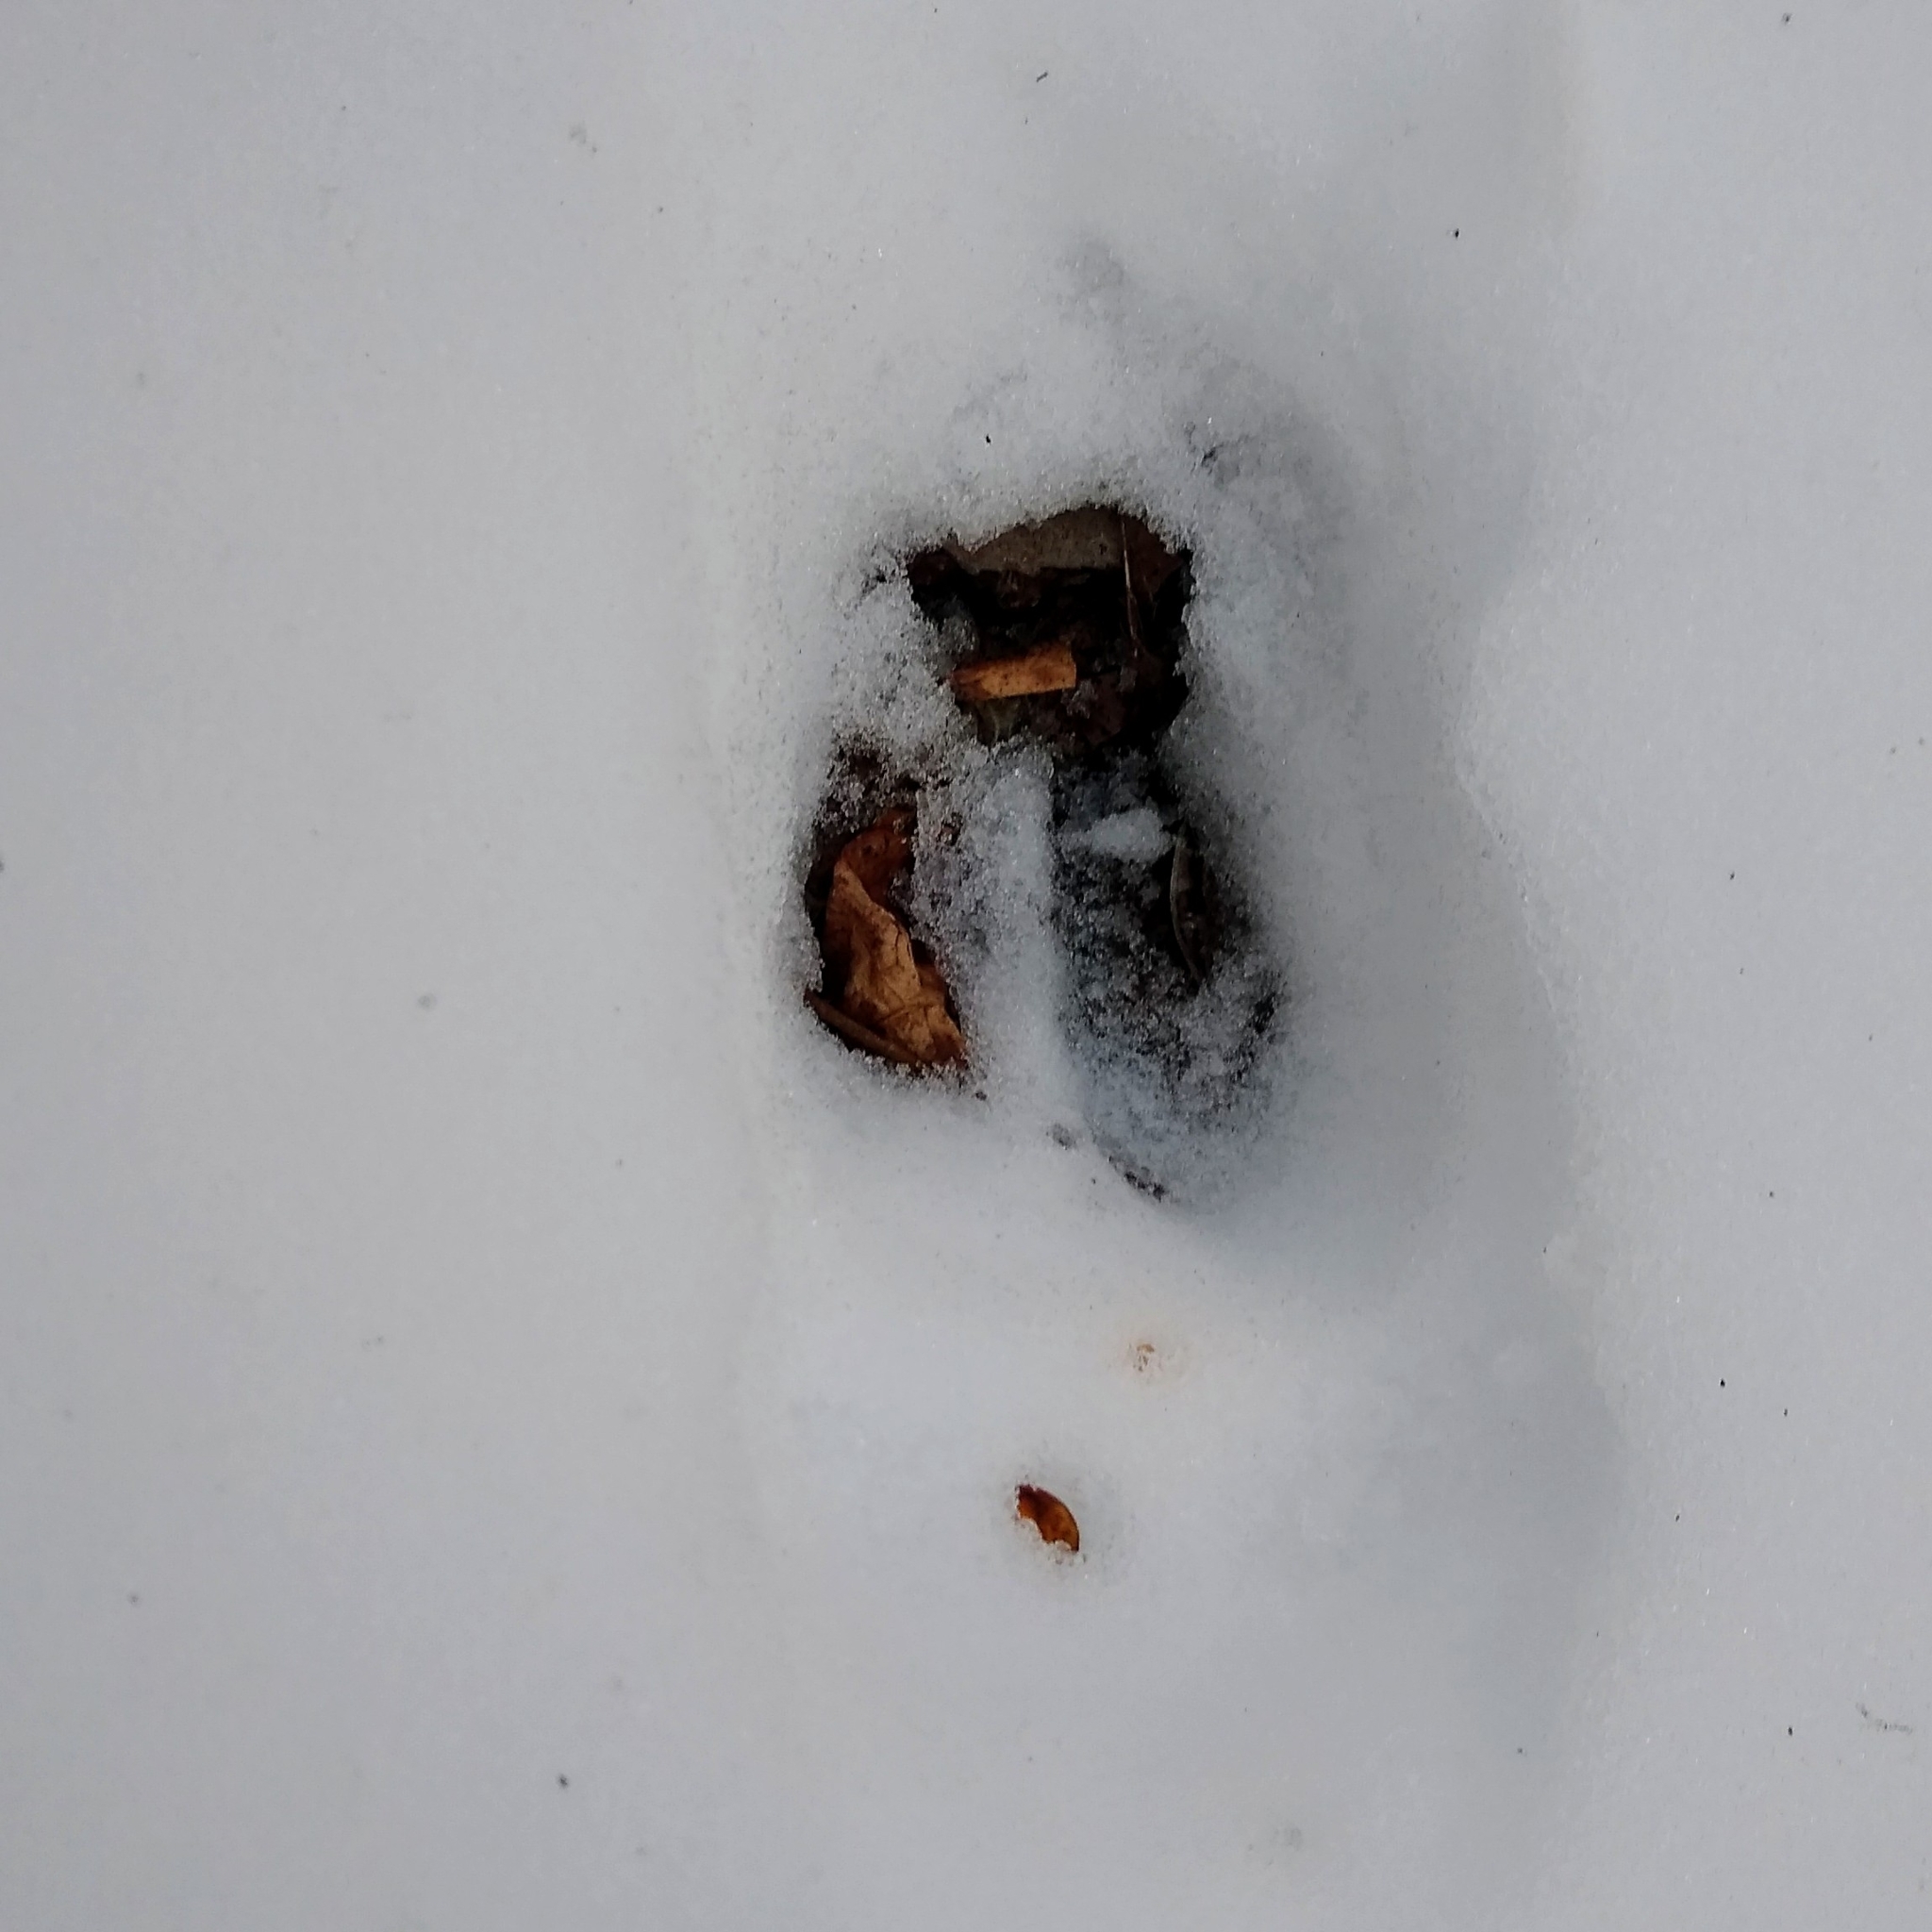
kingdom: Animalia
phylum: Chordata
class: Mammalia
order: Artiodactyla
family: Cervidae
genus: Odocoileus
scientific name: Odocoileus virginianus
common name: White-tailed deer
